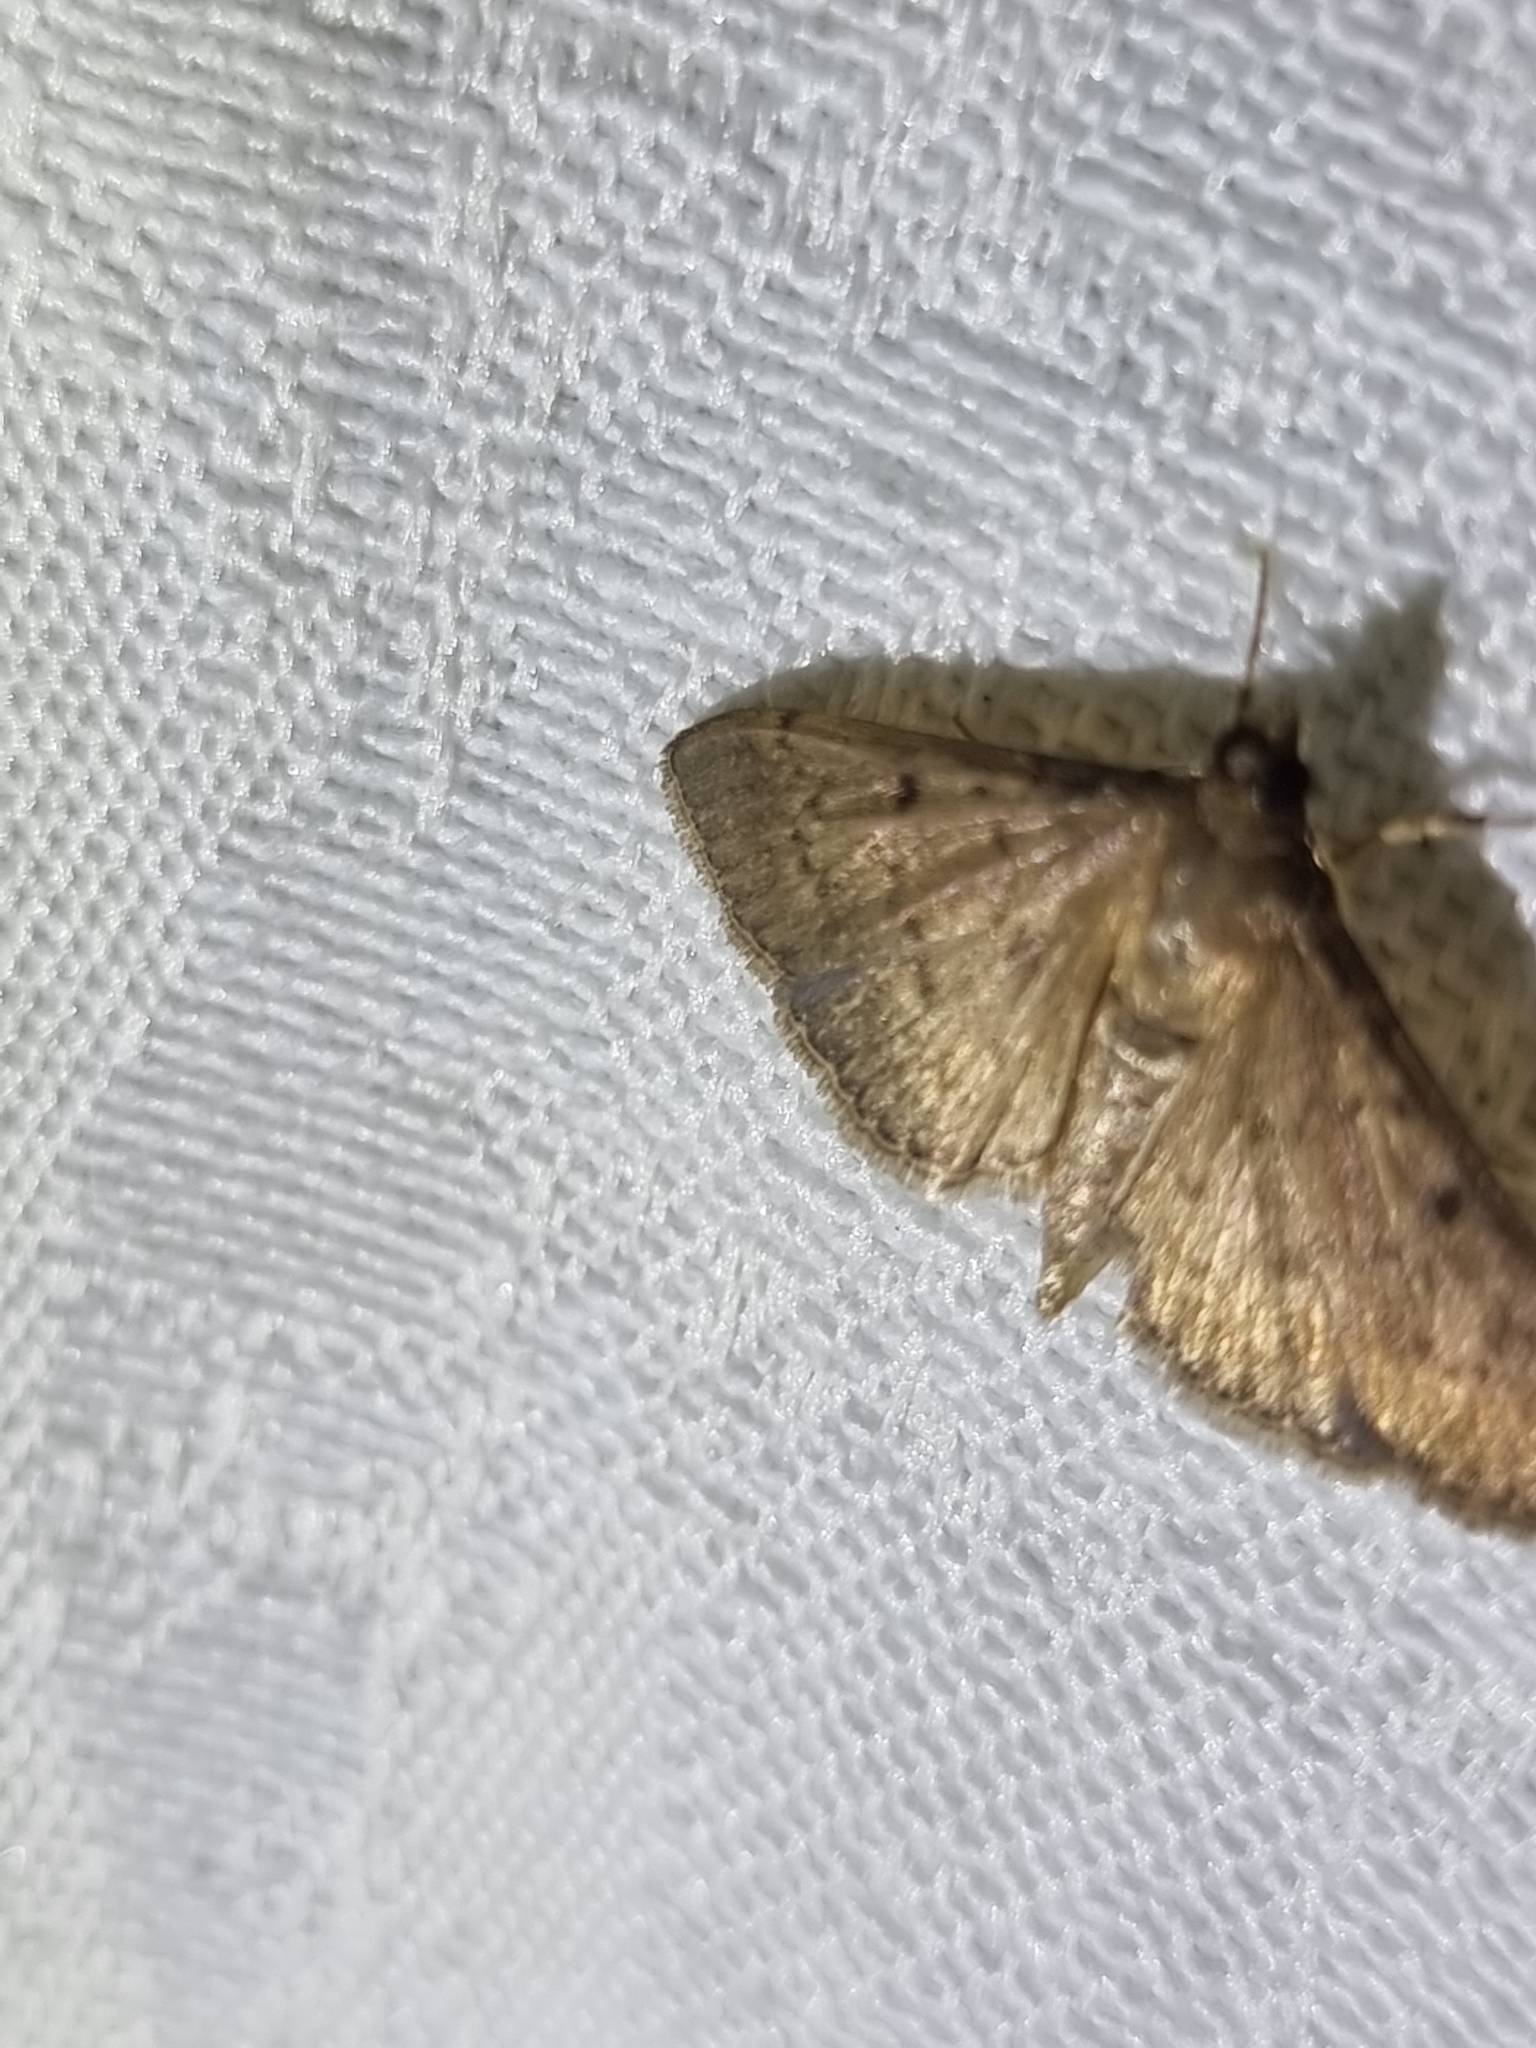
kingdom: Animalia
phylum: Arthropoda
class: Insecta
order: Lepidoptera
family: Crambidae
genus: Herpetogramma
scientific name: Herpetogramma licarsisalis
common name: Grass webworm
